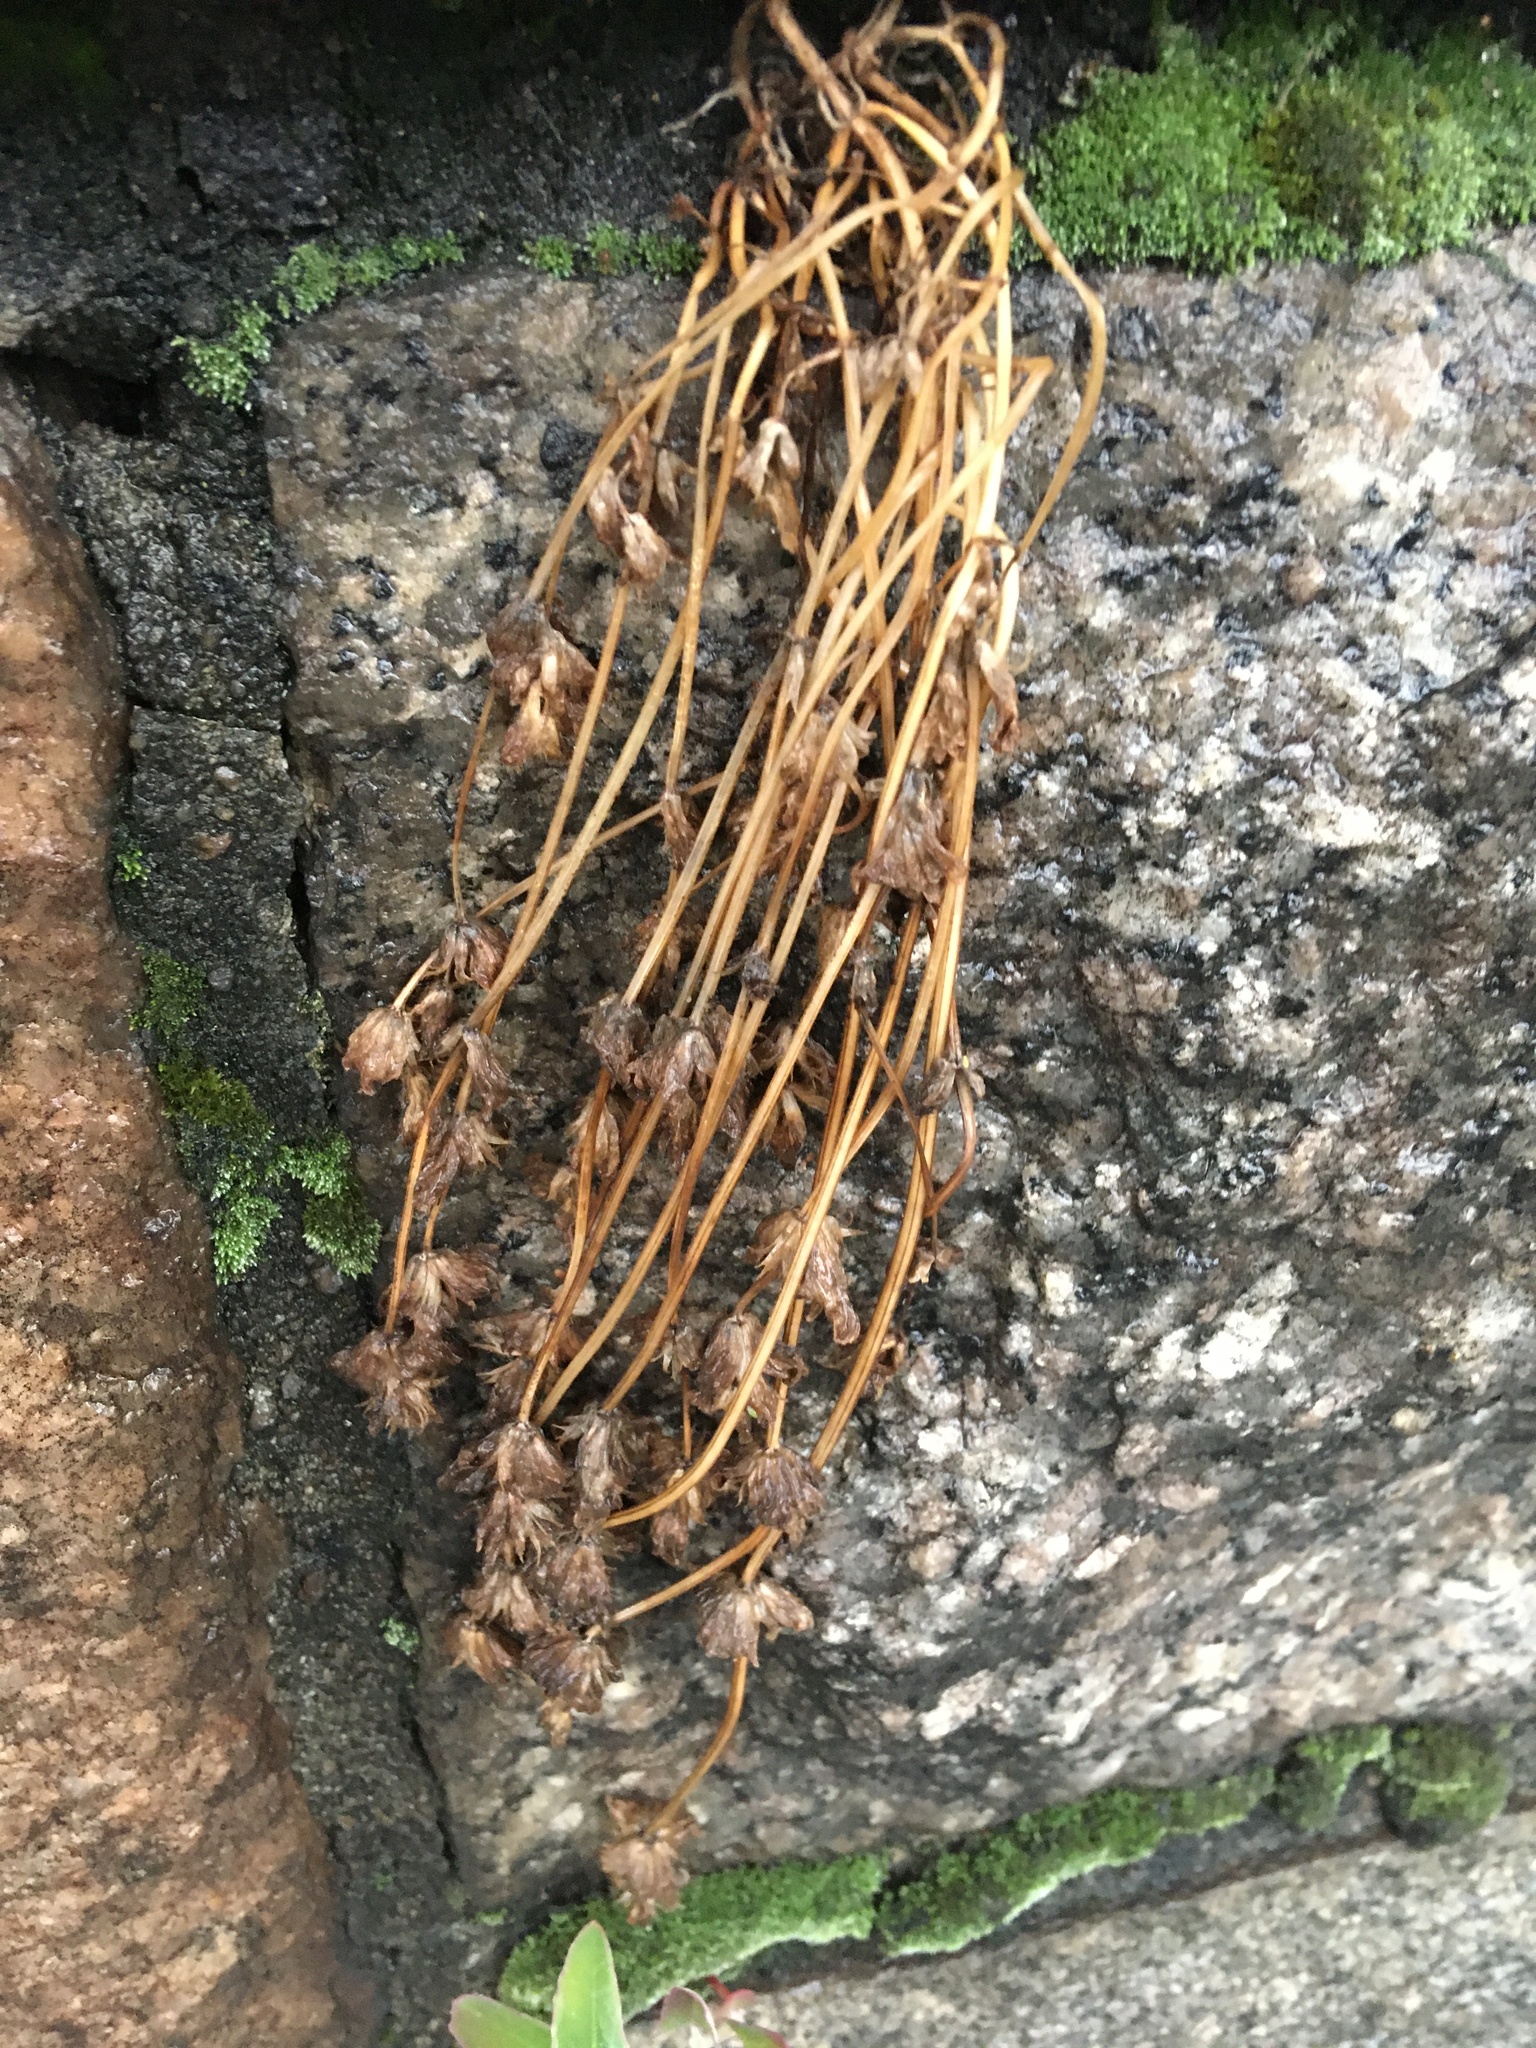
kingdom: Plantae
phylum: Tracheophyta
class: Magnoliopsida
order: Lamiales
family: Lamiaceae
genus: Lamium
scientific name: Lamium amplexicaule
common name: Henbit dead-nettle
